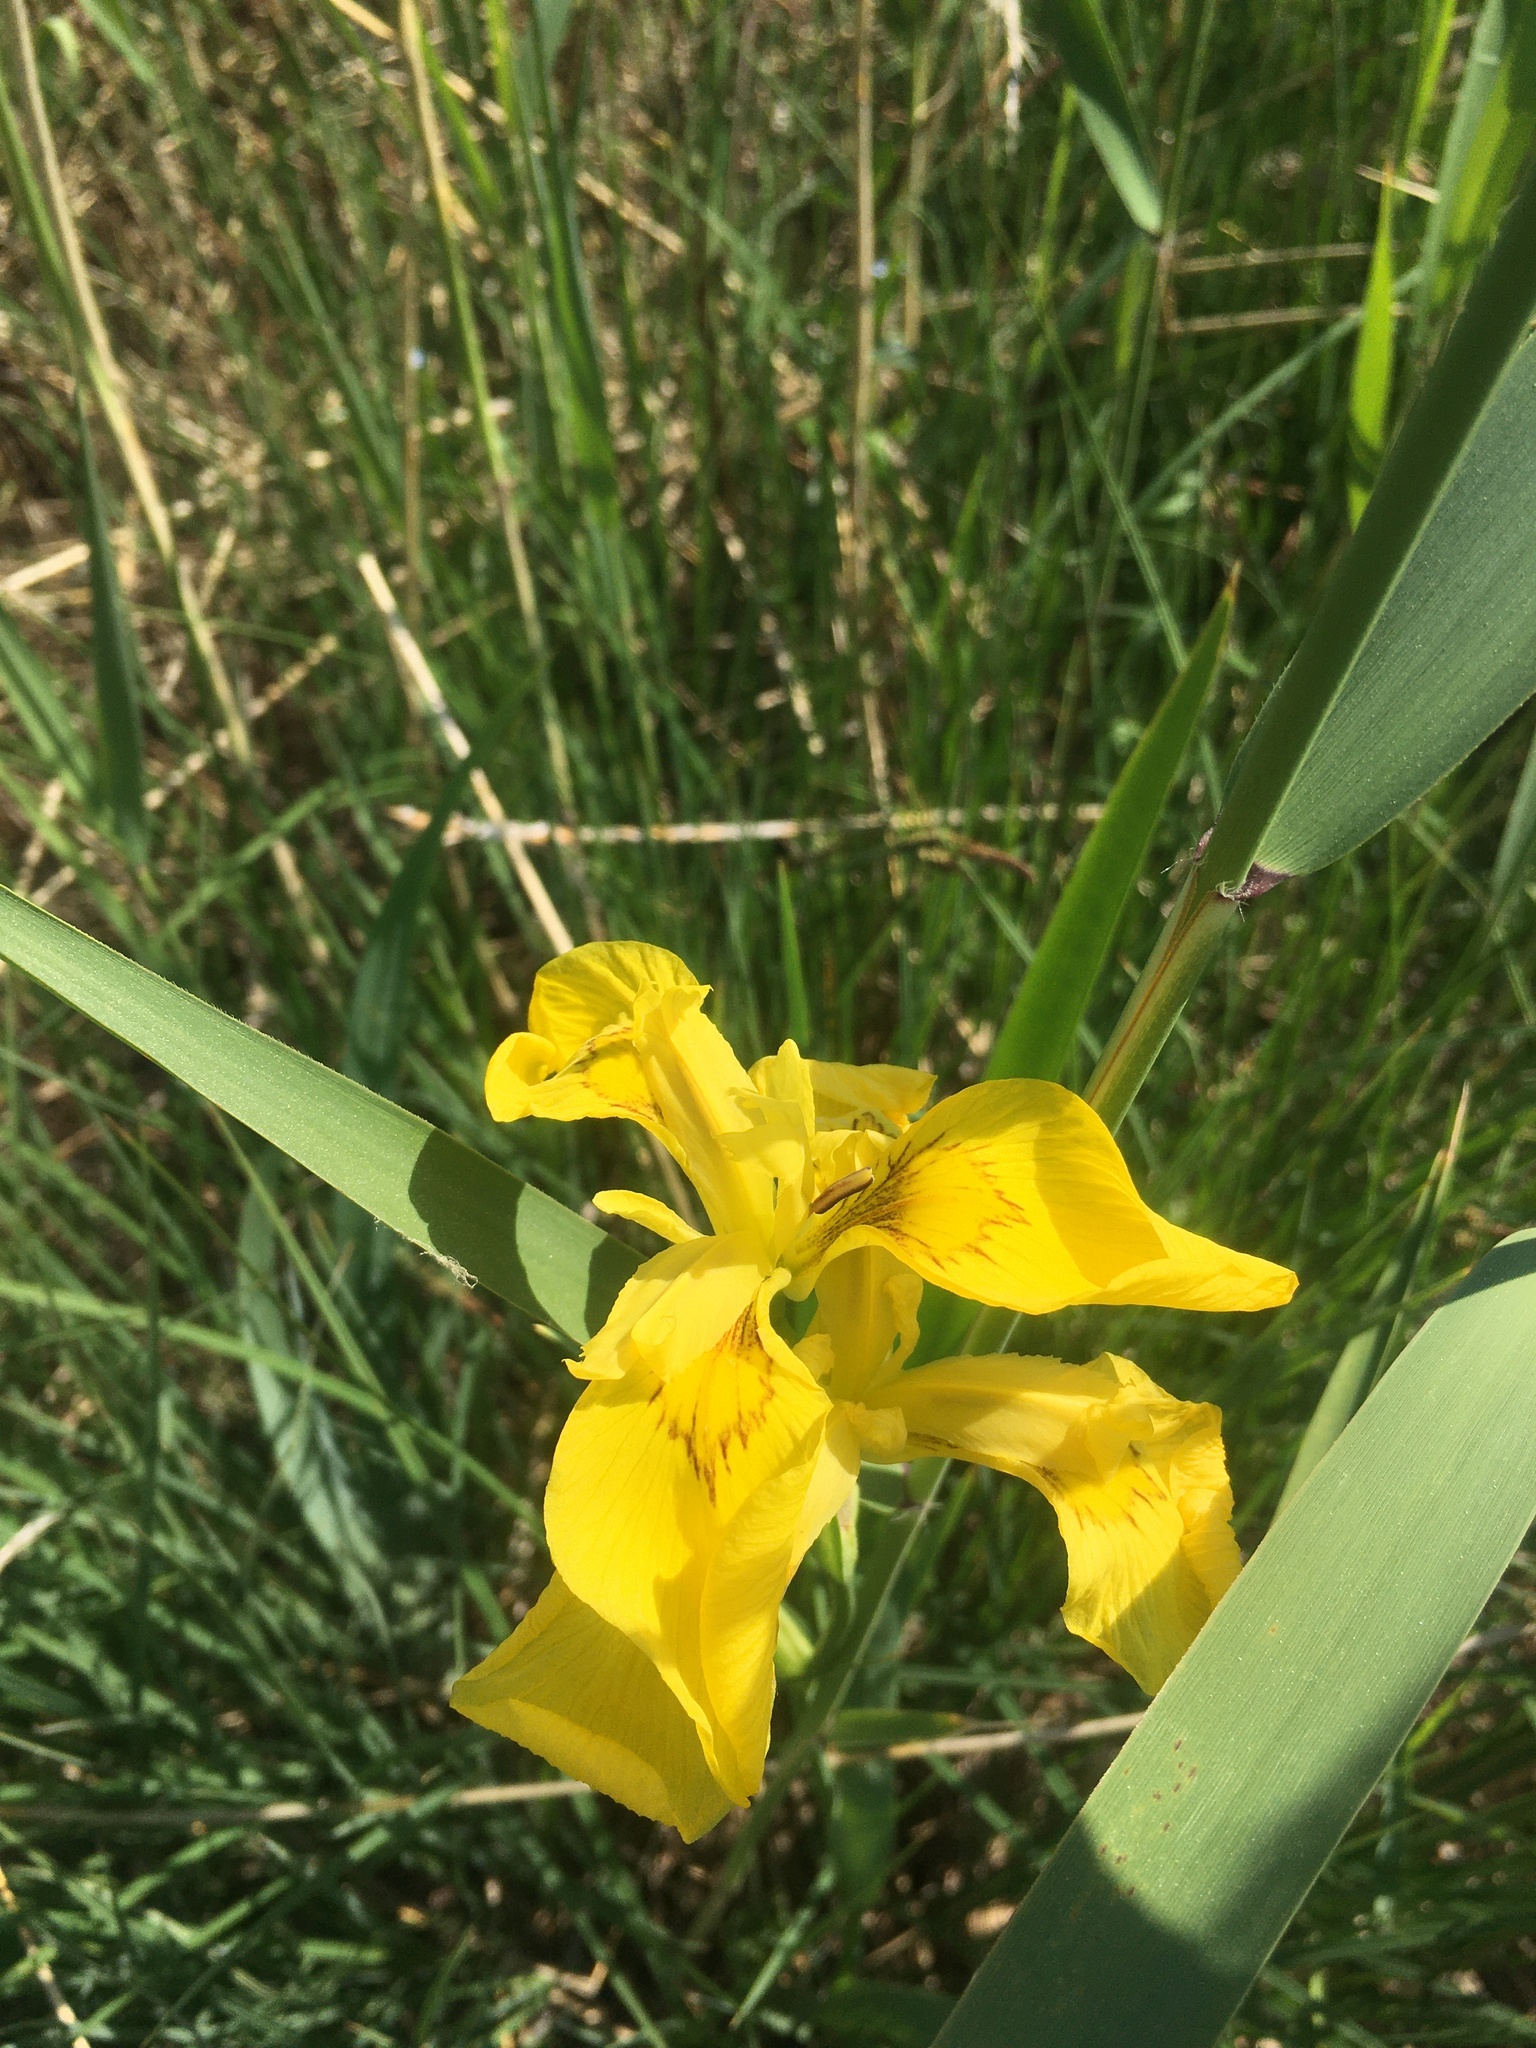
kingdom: Plantae
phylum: Tracheophyta
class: Liliopsida
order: Asparagales
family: Iridaceae
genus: Iris
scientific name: Iris pseudacorus
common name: Yellow flag
